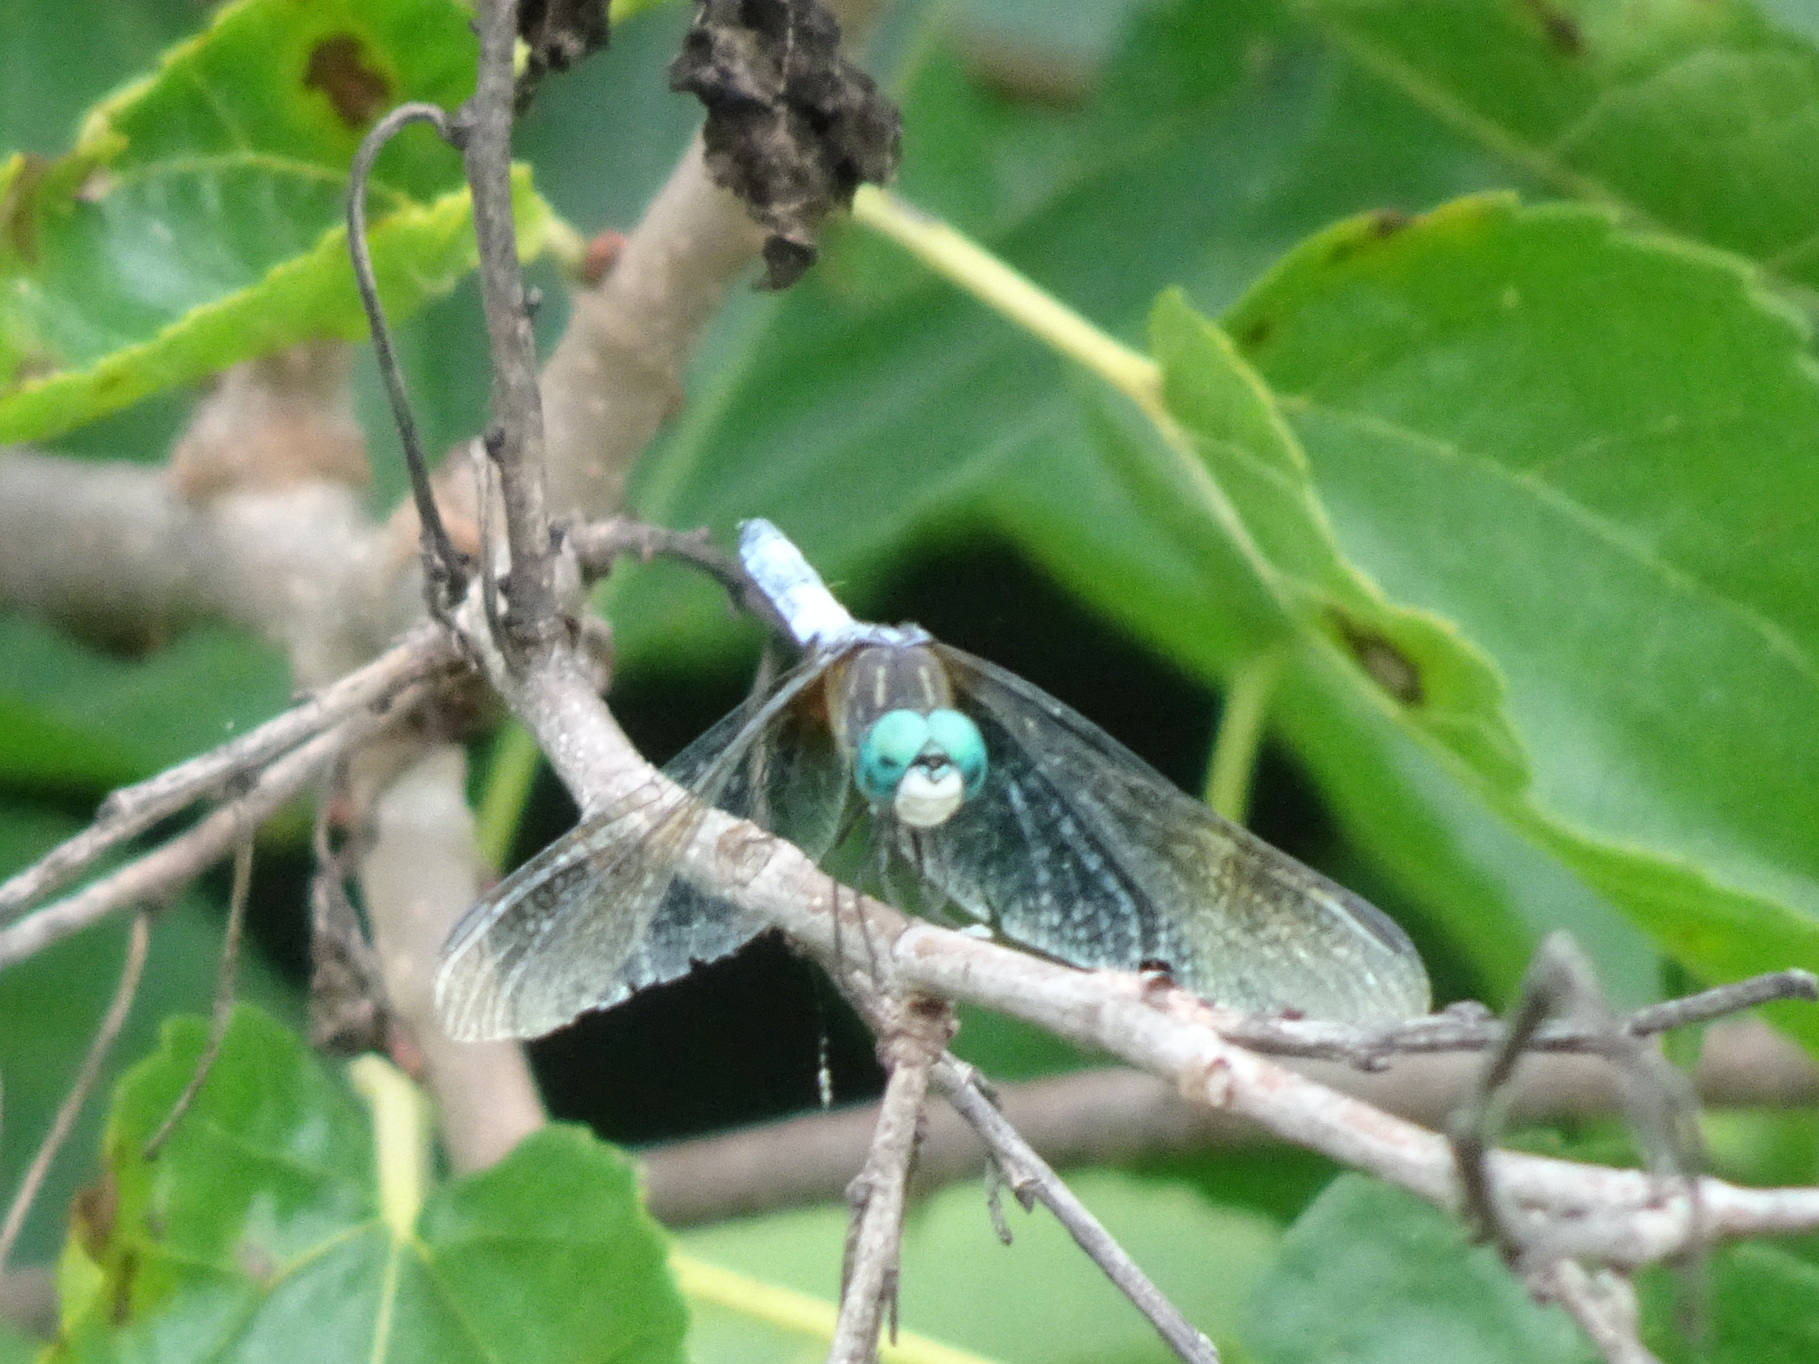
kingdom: Animalia
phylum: Arthropoda
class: Insecta
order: Odonata
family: Libellulidae
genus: Pachydiplax
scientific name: Pachydiplax longipennis
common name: Blue dasher
